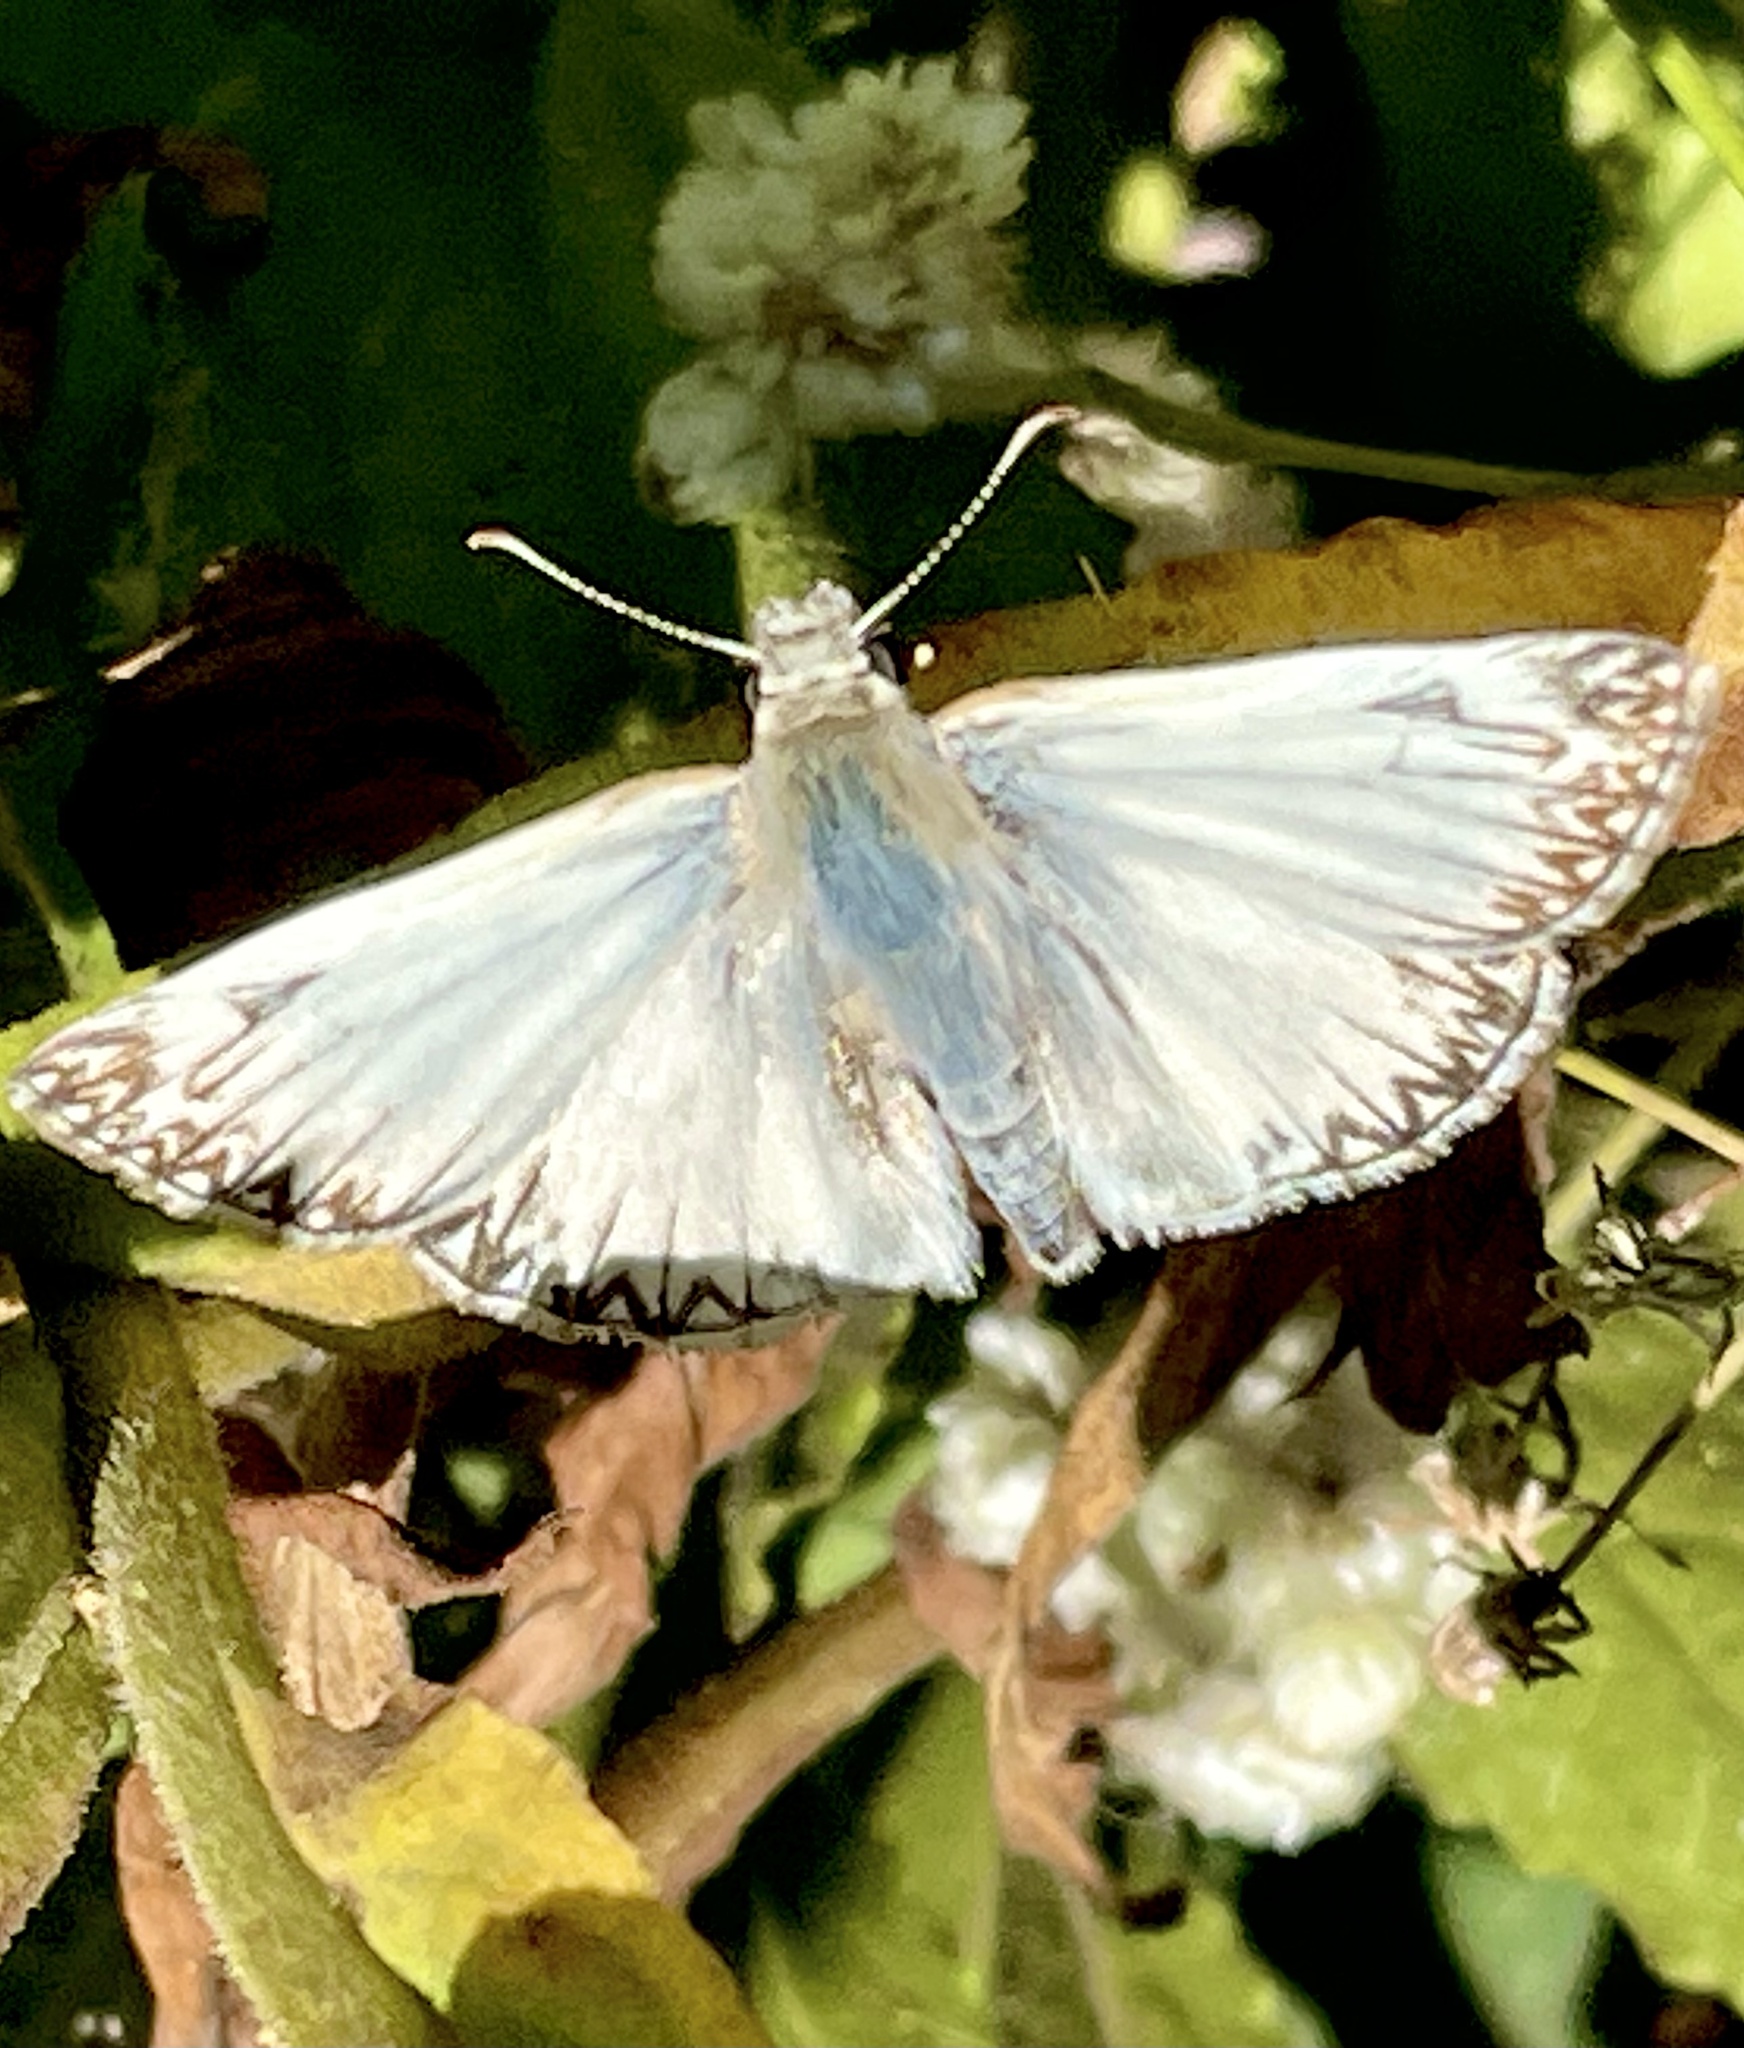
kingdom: Animalia
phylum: Arthropoda
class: Insecta
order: Lepidoptera
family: Hesperiidae
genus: Heliopetes
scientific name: Heliopetes ericetorum
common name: Northern white-skipper
